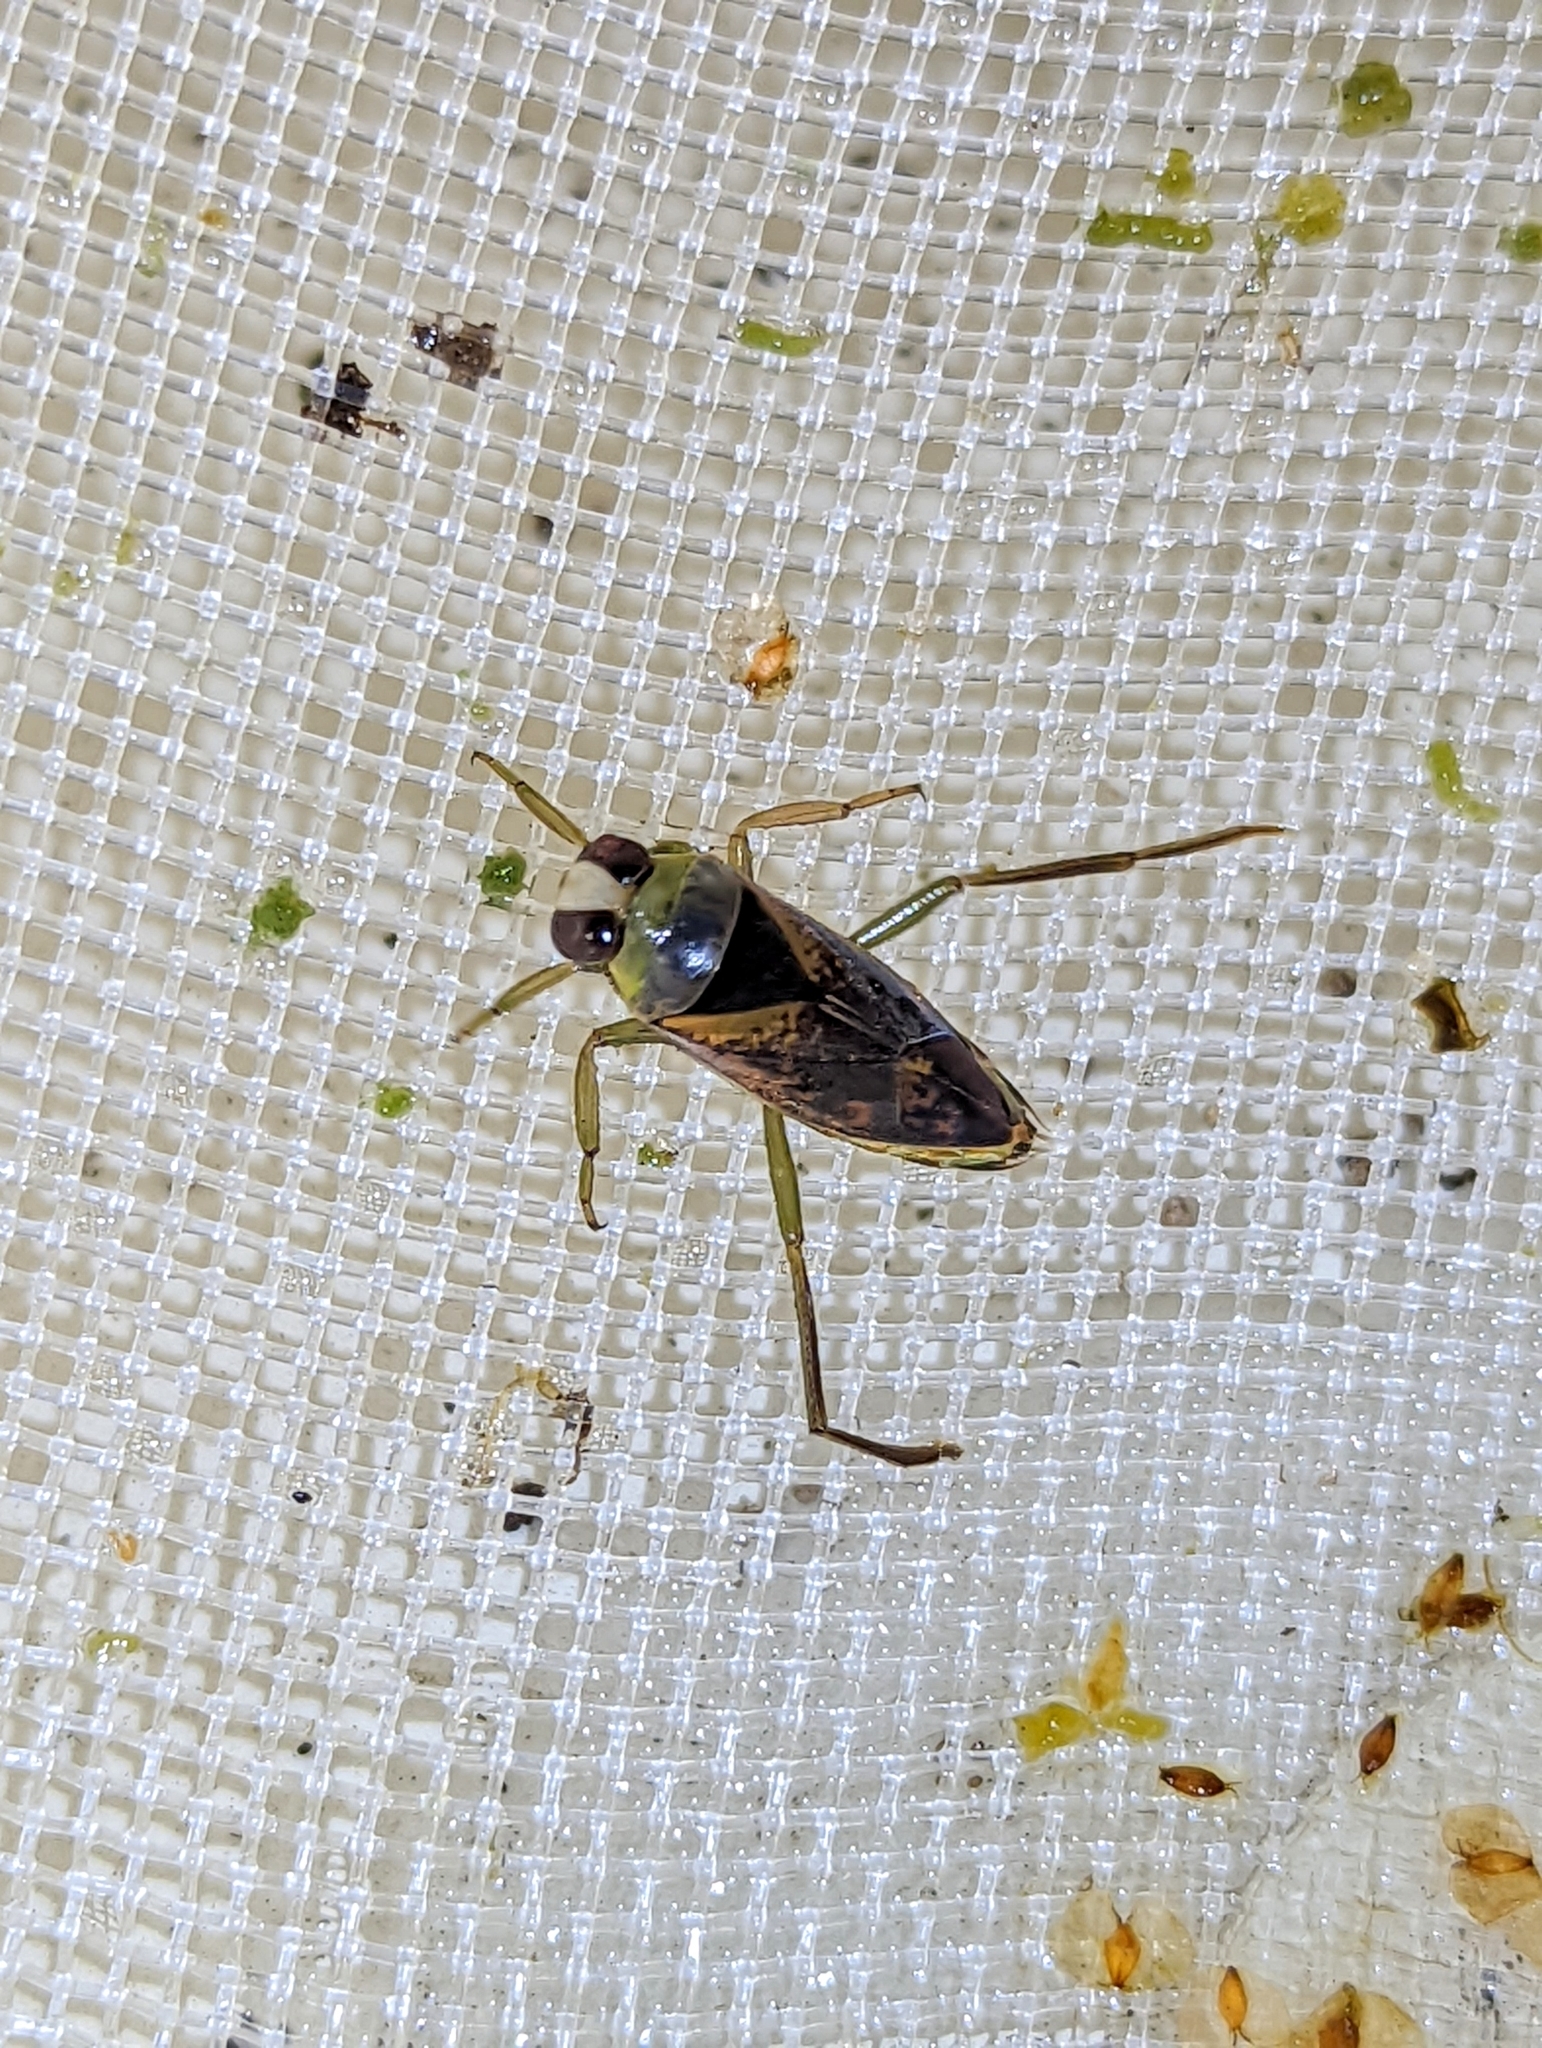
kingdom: Animalia
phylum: Arthropoda
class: Insecta
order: Hemiptera
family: Notonectidae
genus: Notonecta
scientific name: Notonecta maculata
